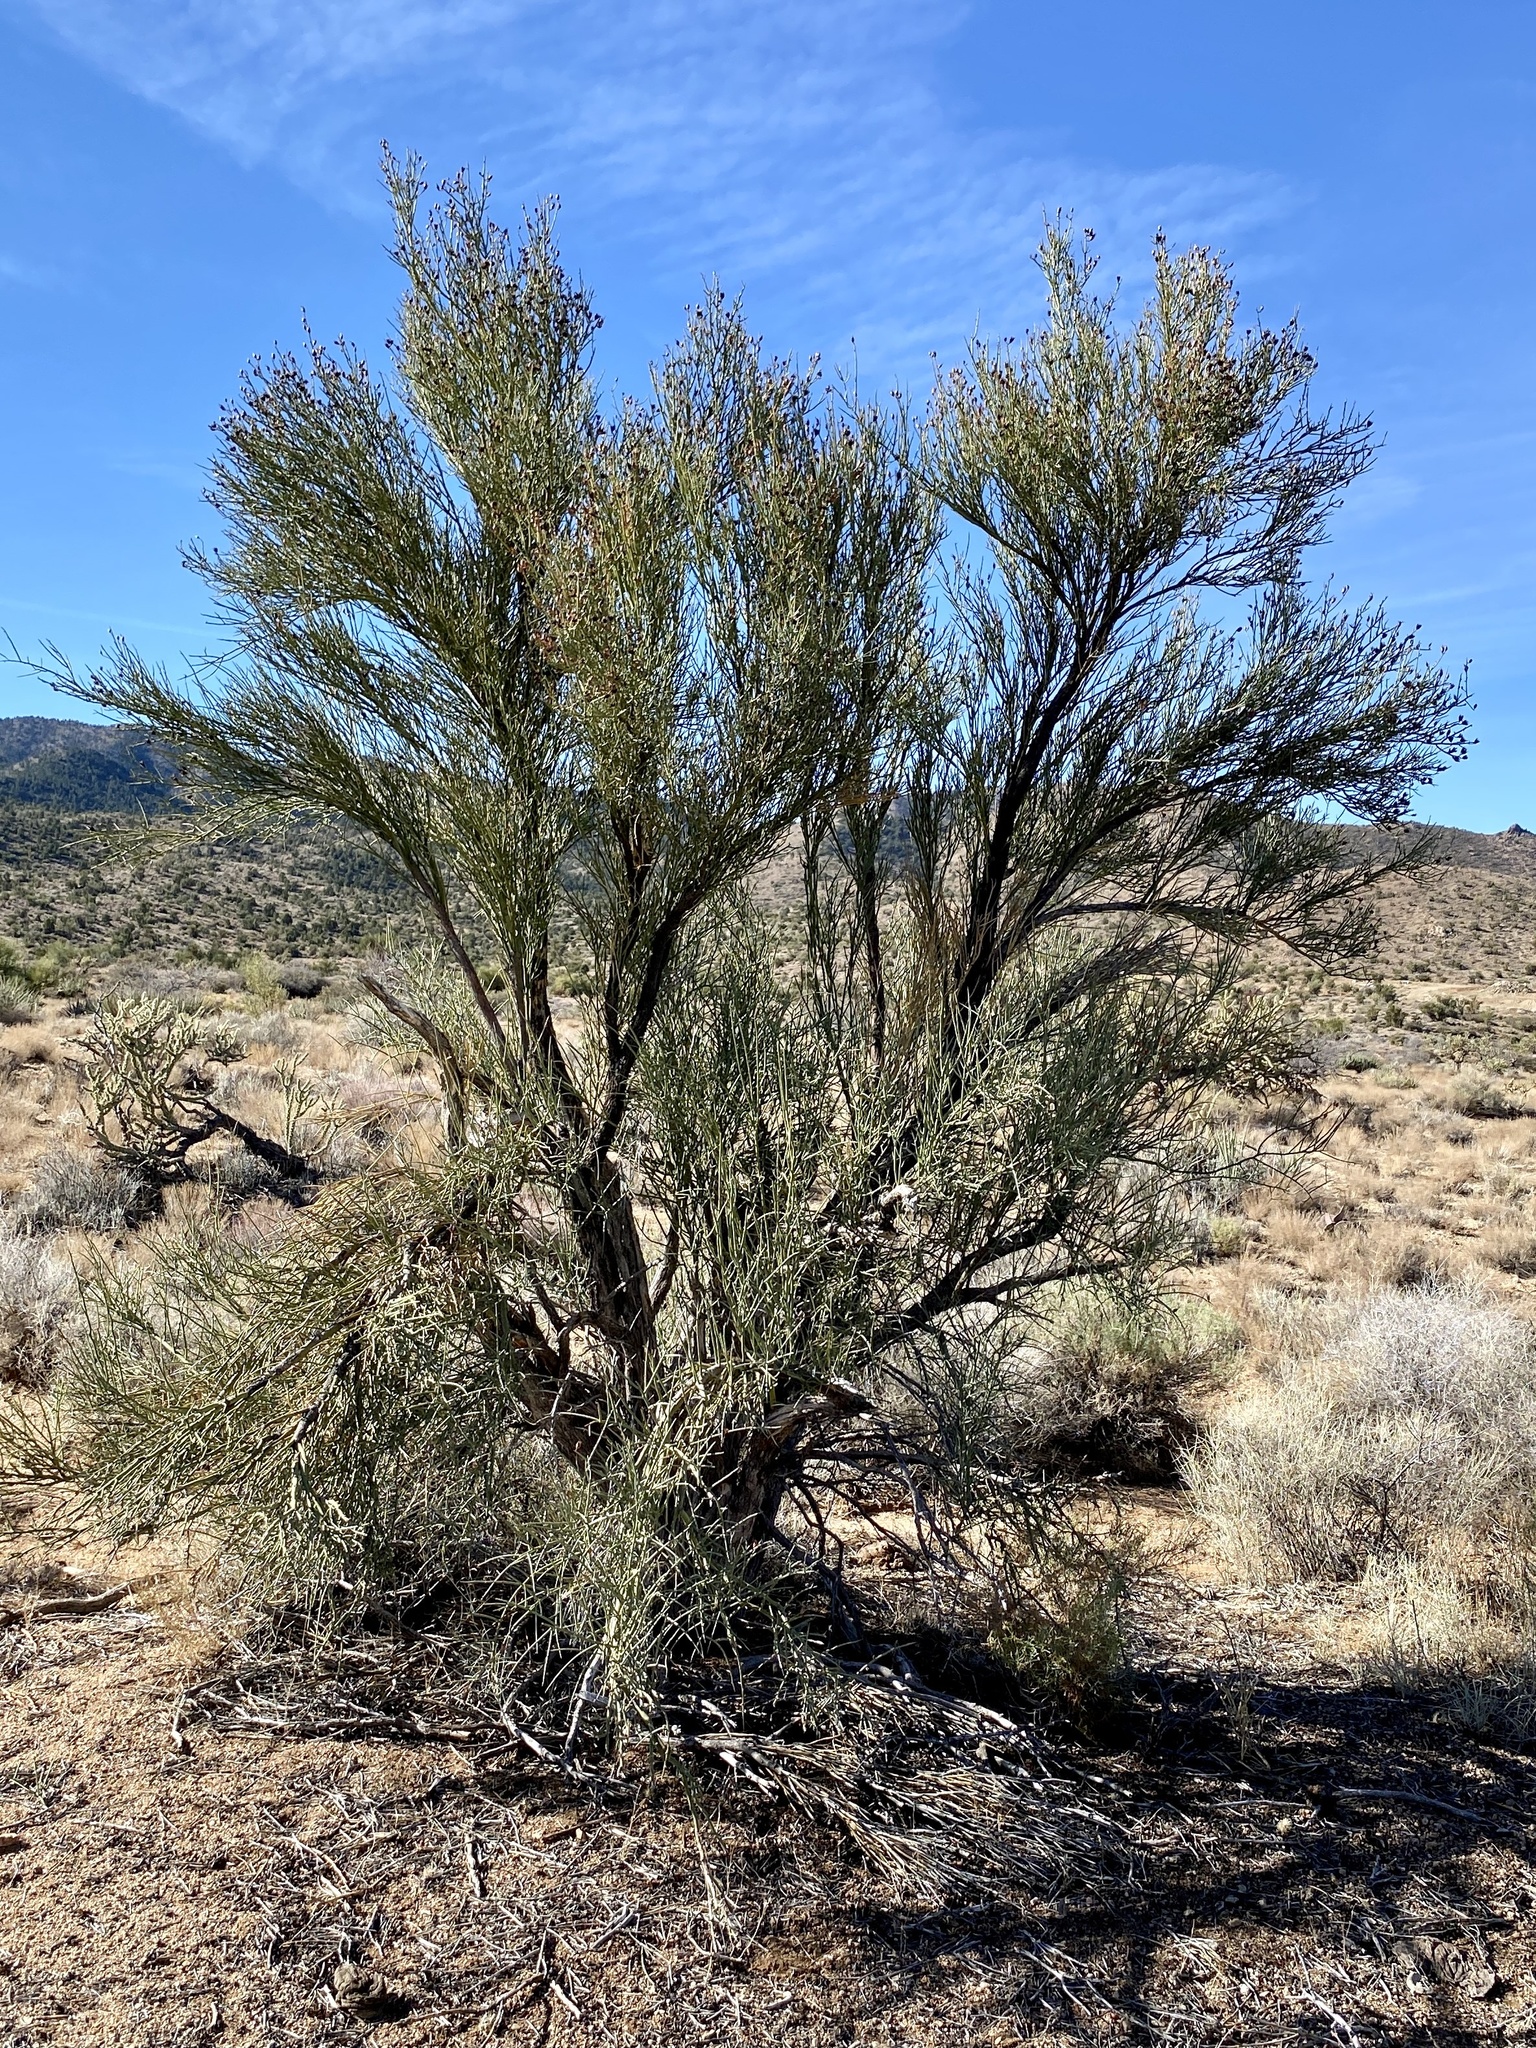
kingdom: Plantae
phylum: Tracheophyta
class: Magnoliopsida
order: Celastrales
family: Celastraceae
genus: Canotia
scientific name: Canotia holacantha
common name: Crucifixion thorns
